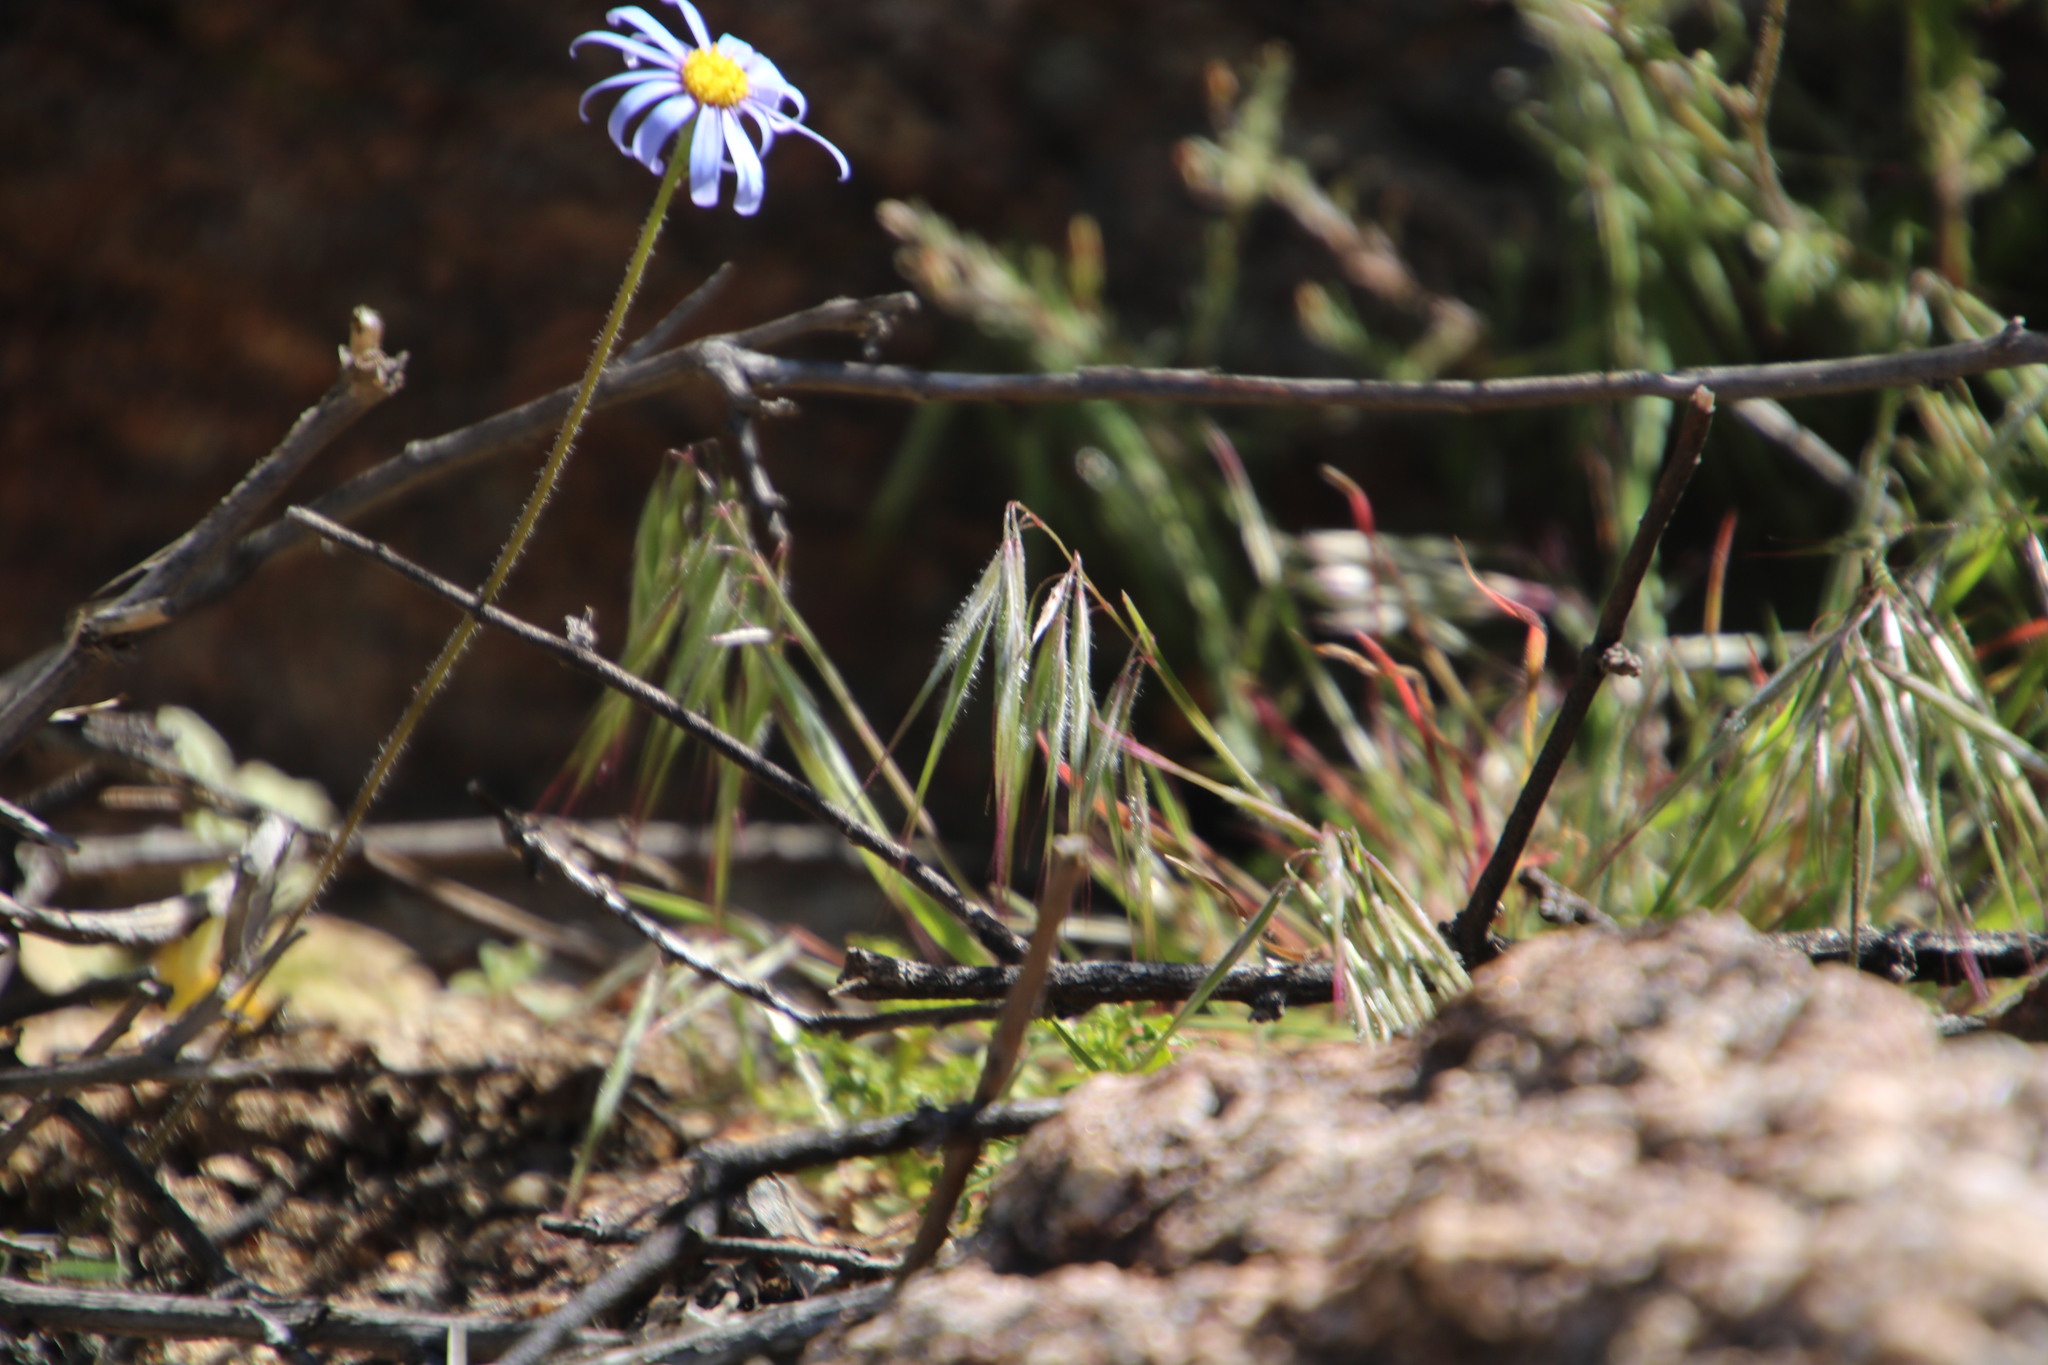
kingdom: Plantae
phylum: Tracheophyta
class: Liliopsida
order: Poales
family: Poaceae
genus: Bromus
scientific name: Bromus pectinatus
